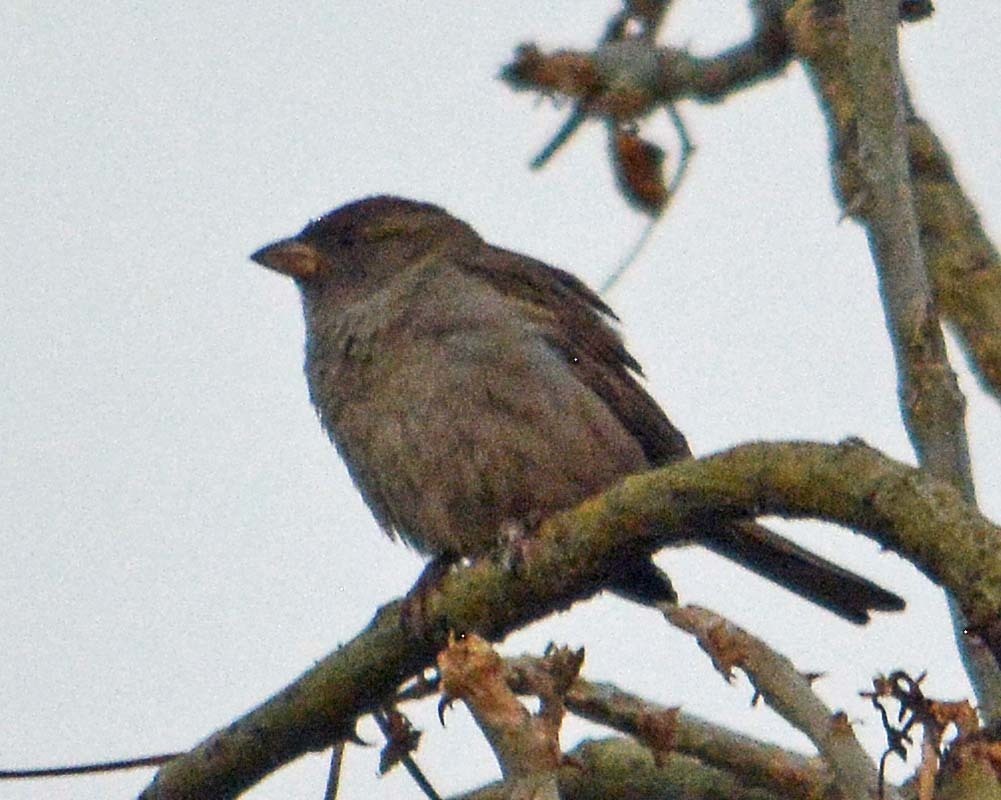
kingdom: Animalia
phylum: Chordata
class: Aves
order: Passeriformes
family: Passeridae
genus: Passer
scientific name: Passer domesticus
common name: House sparrow
